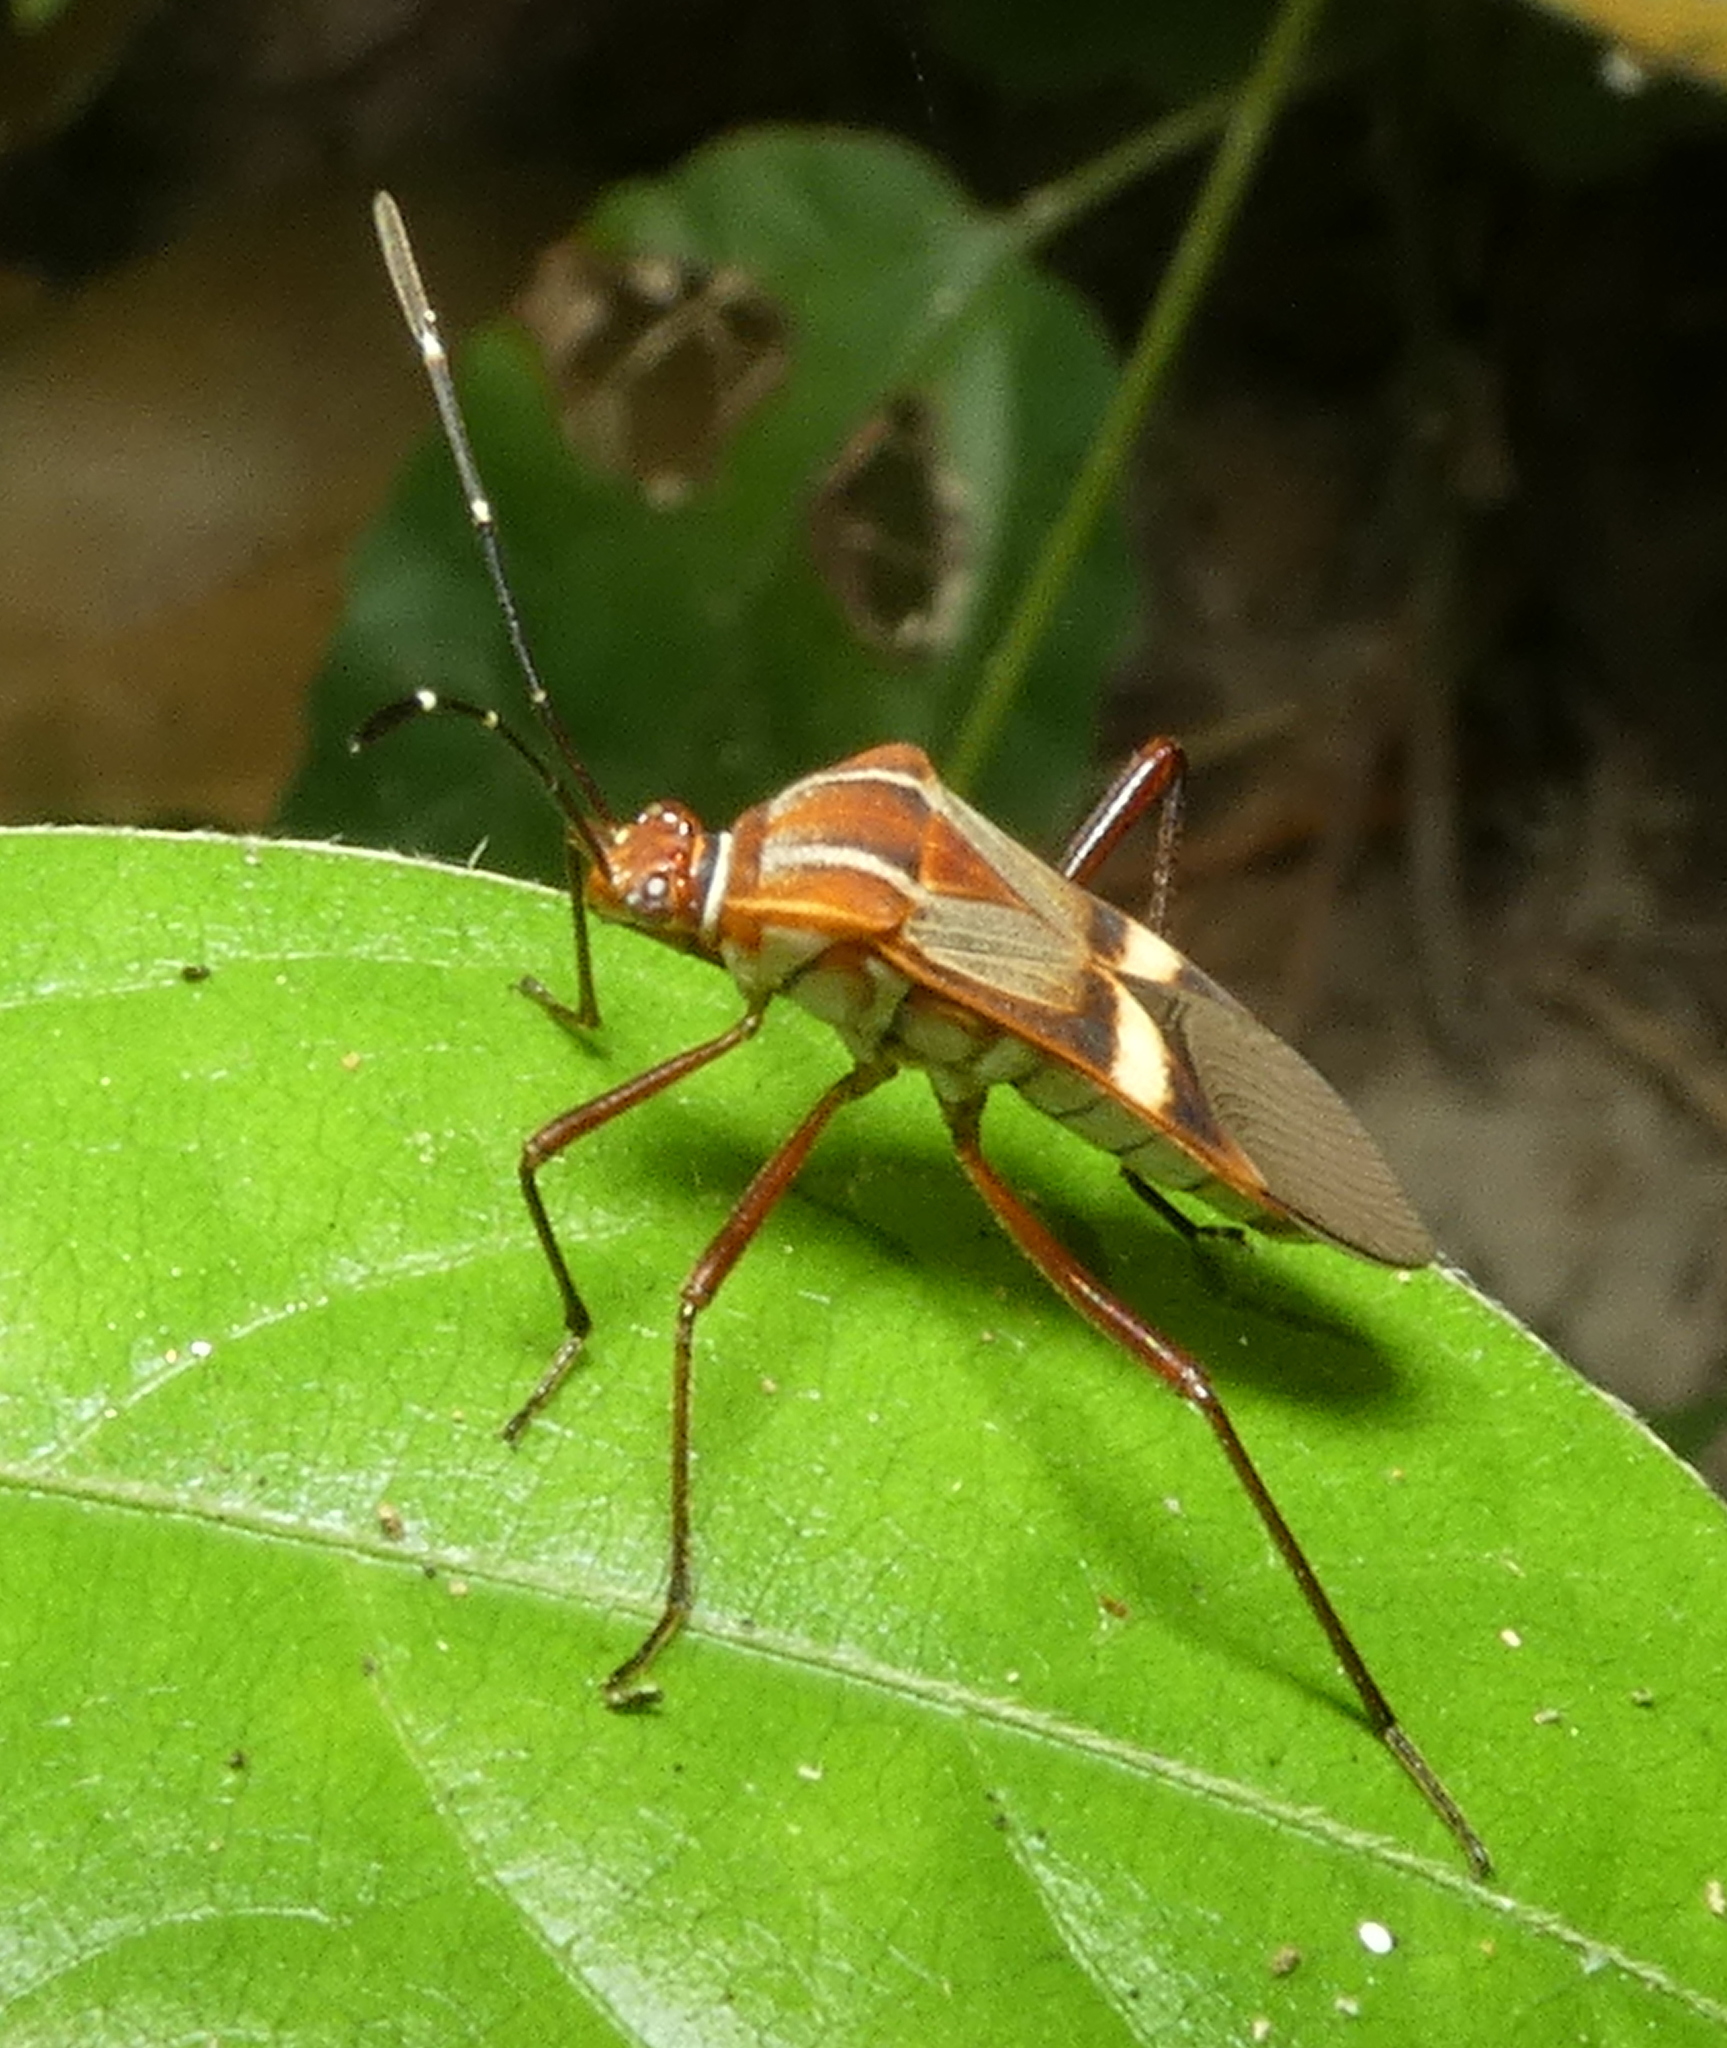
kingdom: Animalia
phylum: Arthropoda
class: Insecta
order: Hemiptera
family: Coreidae
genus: Hypselonotus
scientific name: Hypselonotus interruptus
